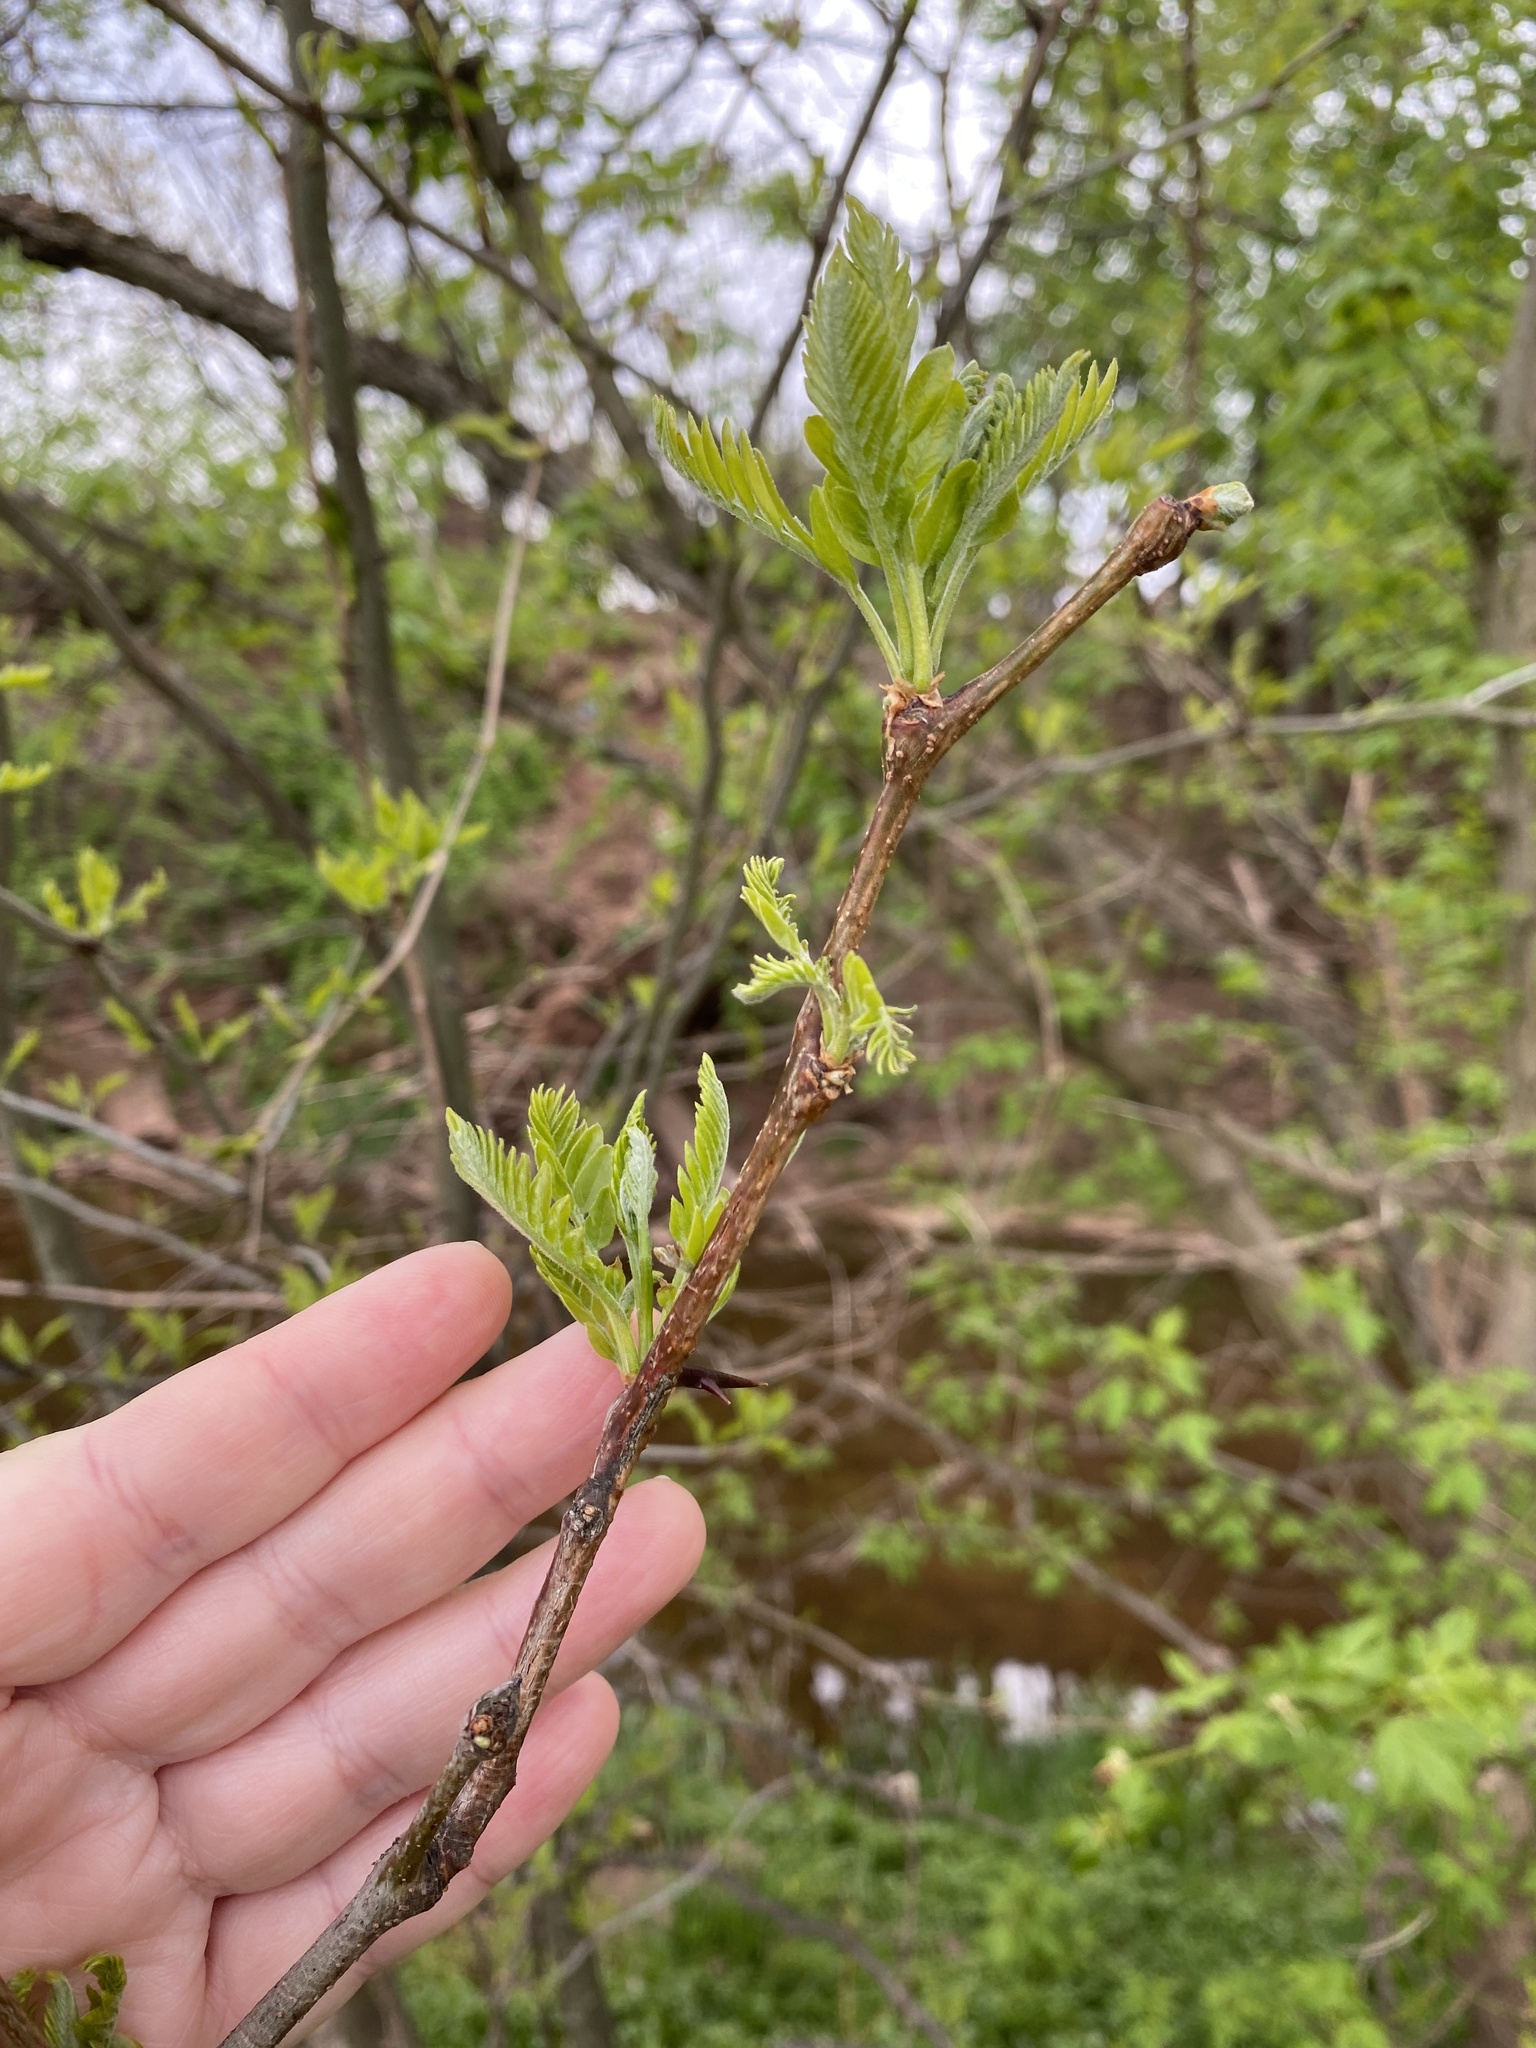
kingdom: Plantae
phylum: Tracheophyta
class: Magnoliopsida
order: Fabales
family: Fabaceae
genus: Gleditsia
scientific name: Gleditsia triacanthos
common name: Common honeylocust
